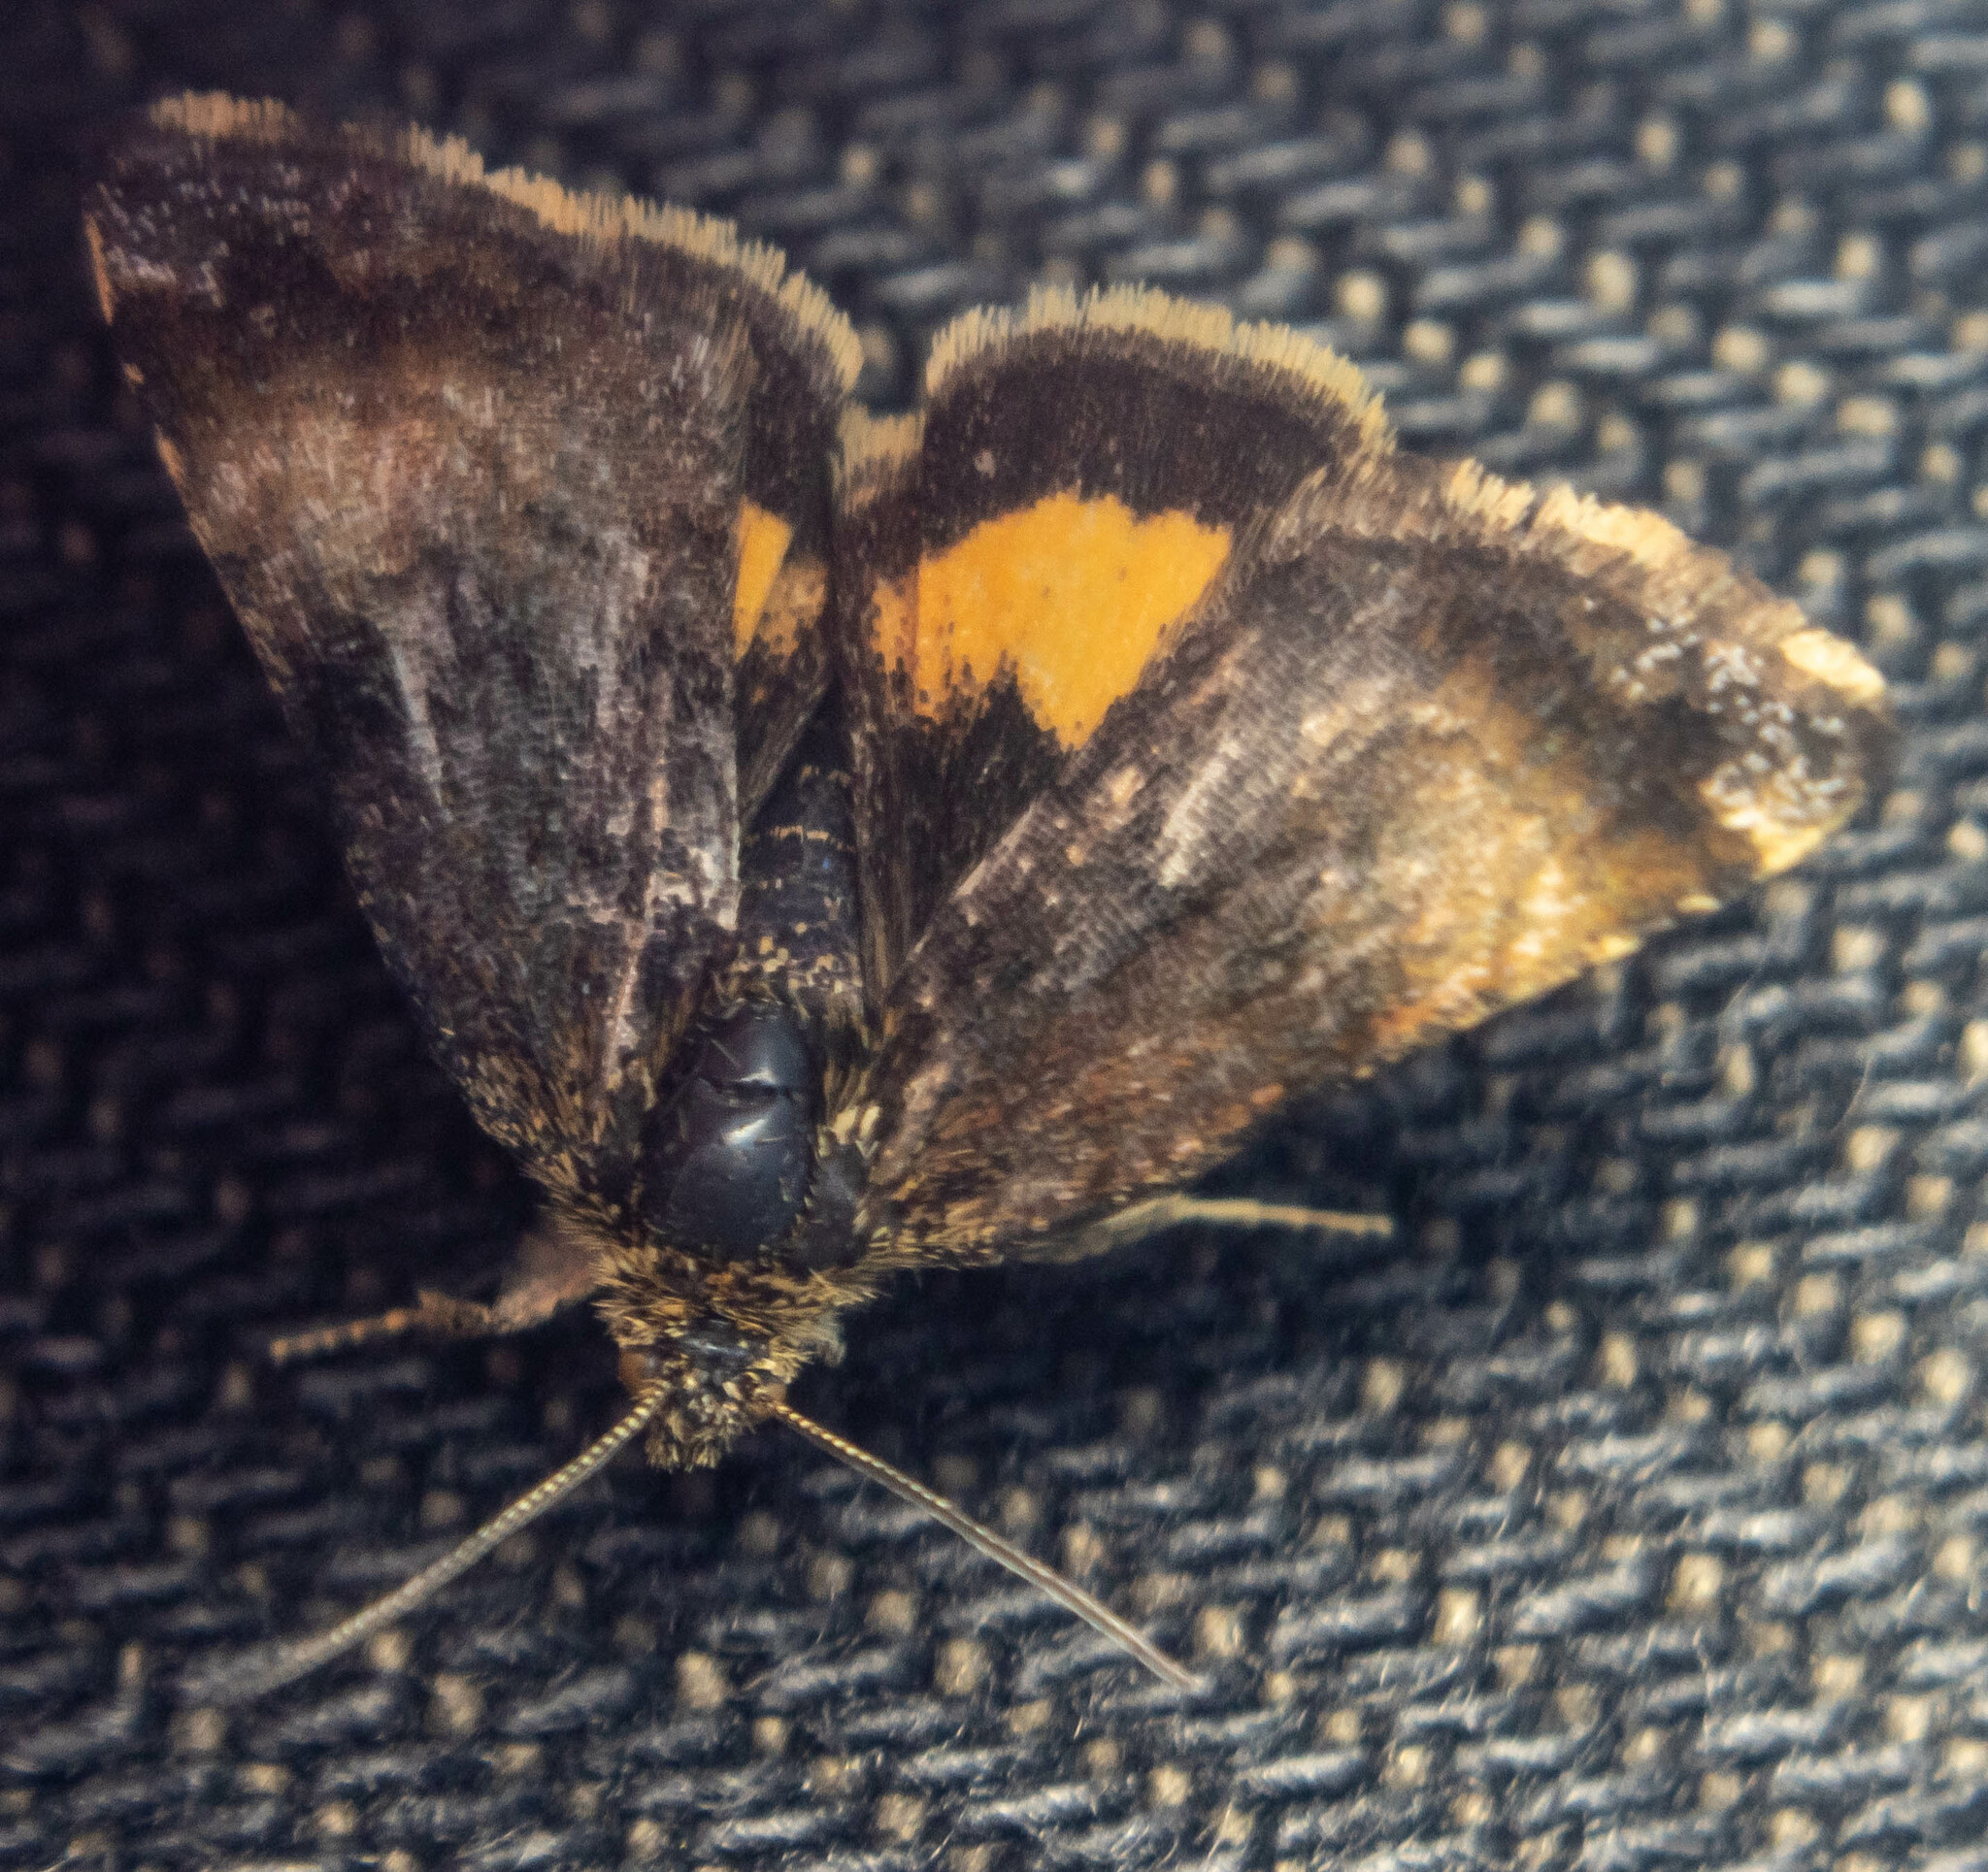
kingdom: Animalia
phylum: Arthropoda
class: Insecta
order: Lepidoptera
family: Noctuidae
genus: Panemeria
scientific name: Panemeria tenebrata
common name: Small yellow underwing
